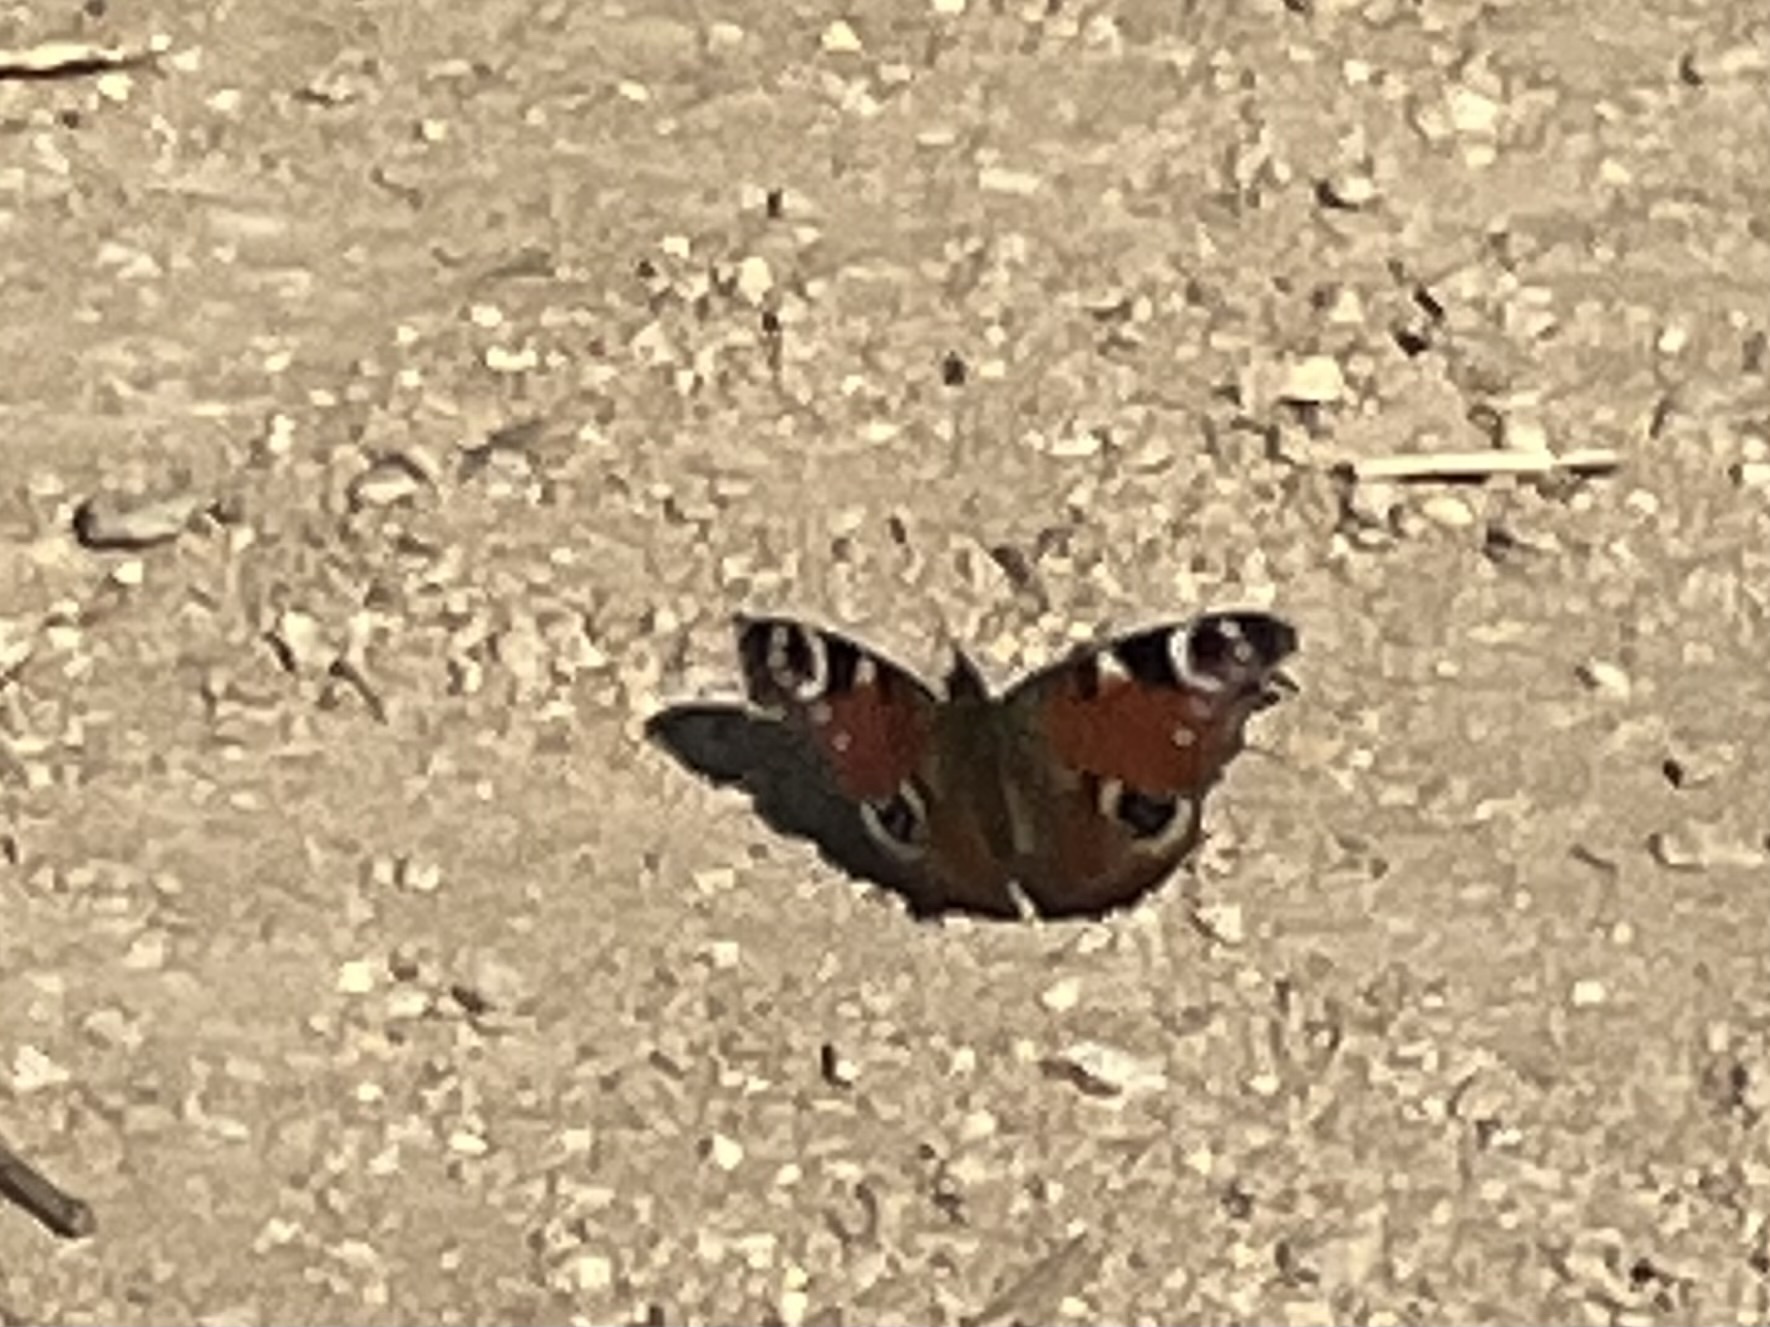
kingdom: Animalia
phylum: Arthropoda
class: Insecta
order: Lepidoptera
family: Nymphalidae
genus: Aglais
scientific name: Aglais io
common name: Peacock
